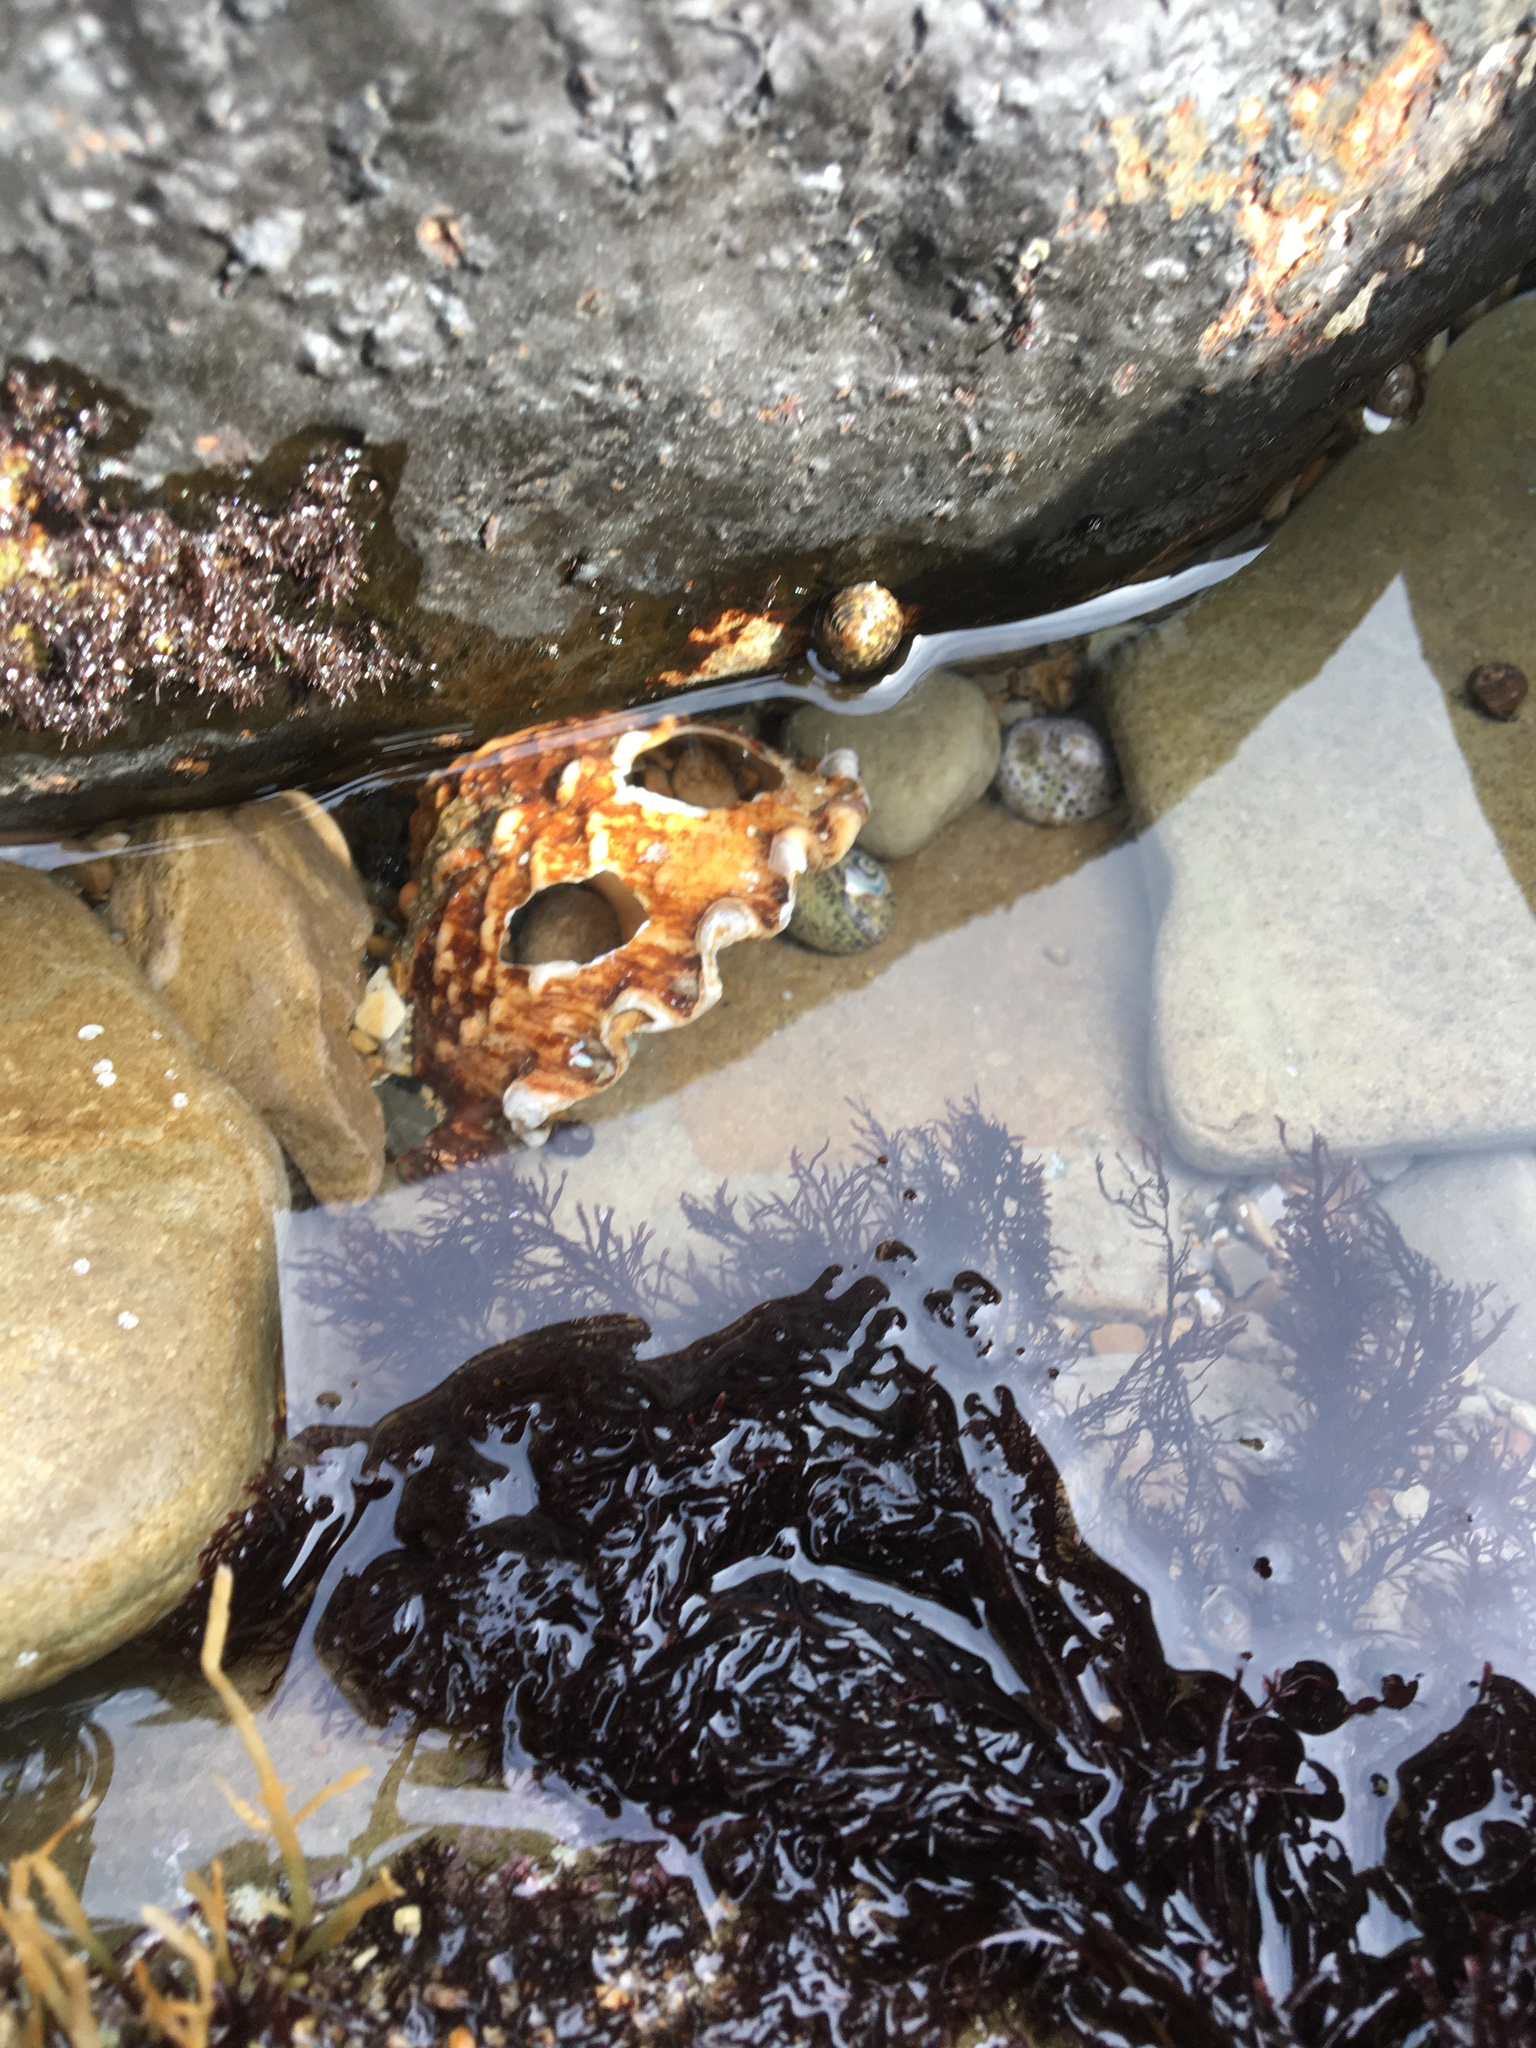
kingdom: Animalia
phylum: Mollusca
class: Gastropoda
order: Trochida
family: Turbinidae
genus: Megastraea
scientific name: Megastraea undosa
